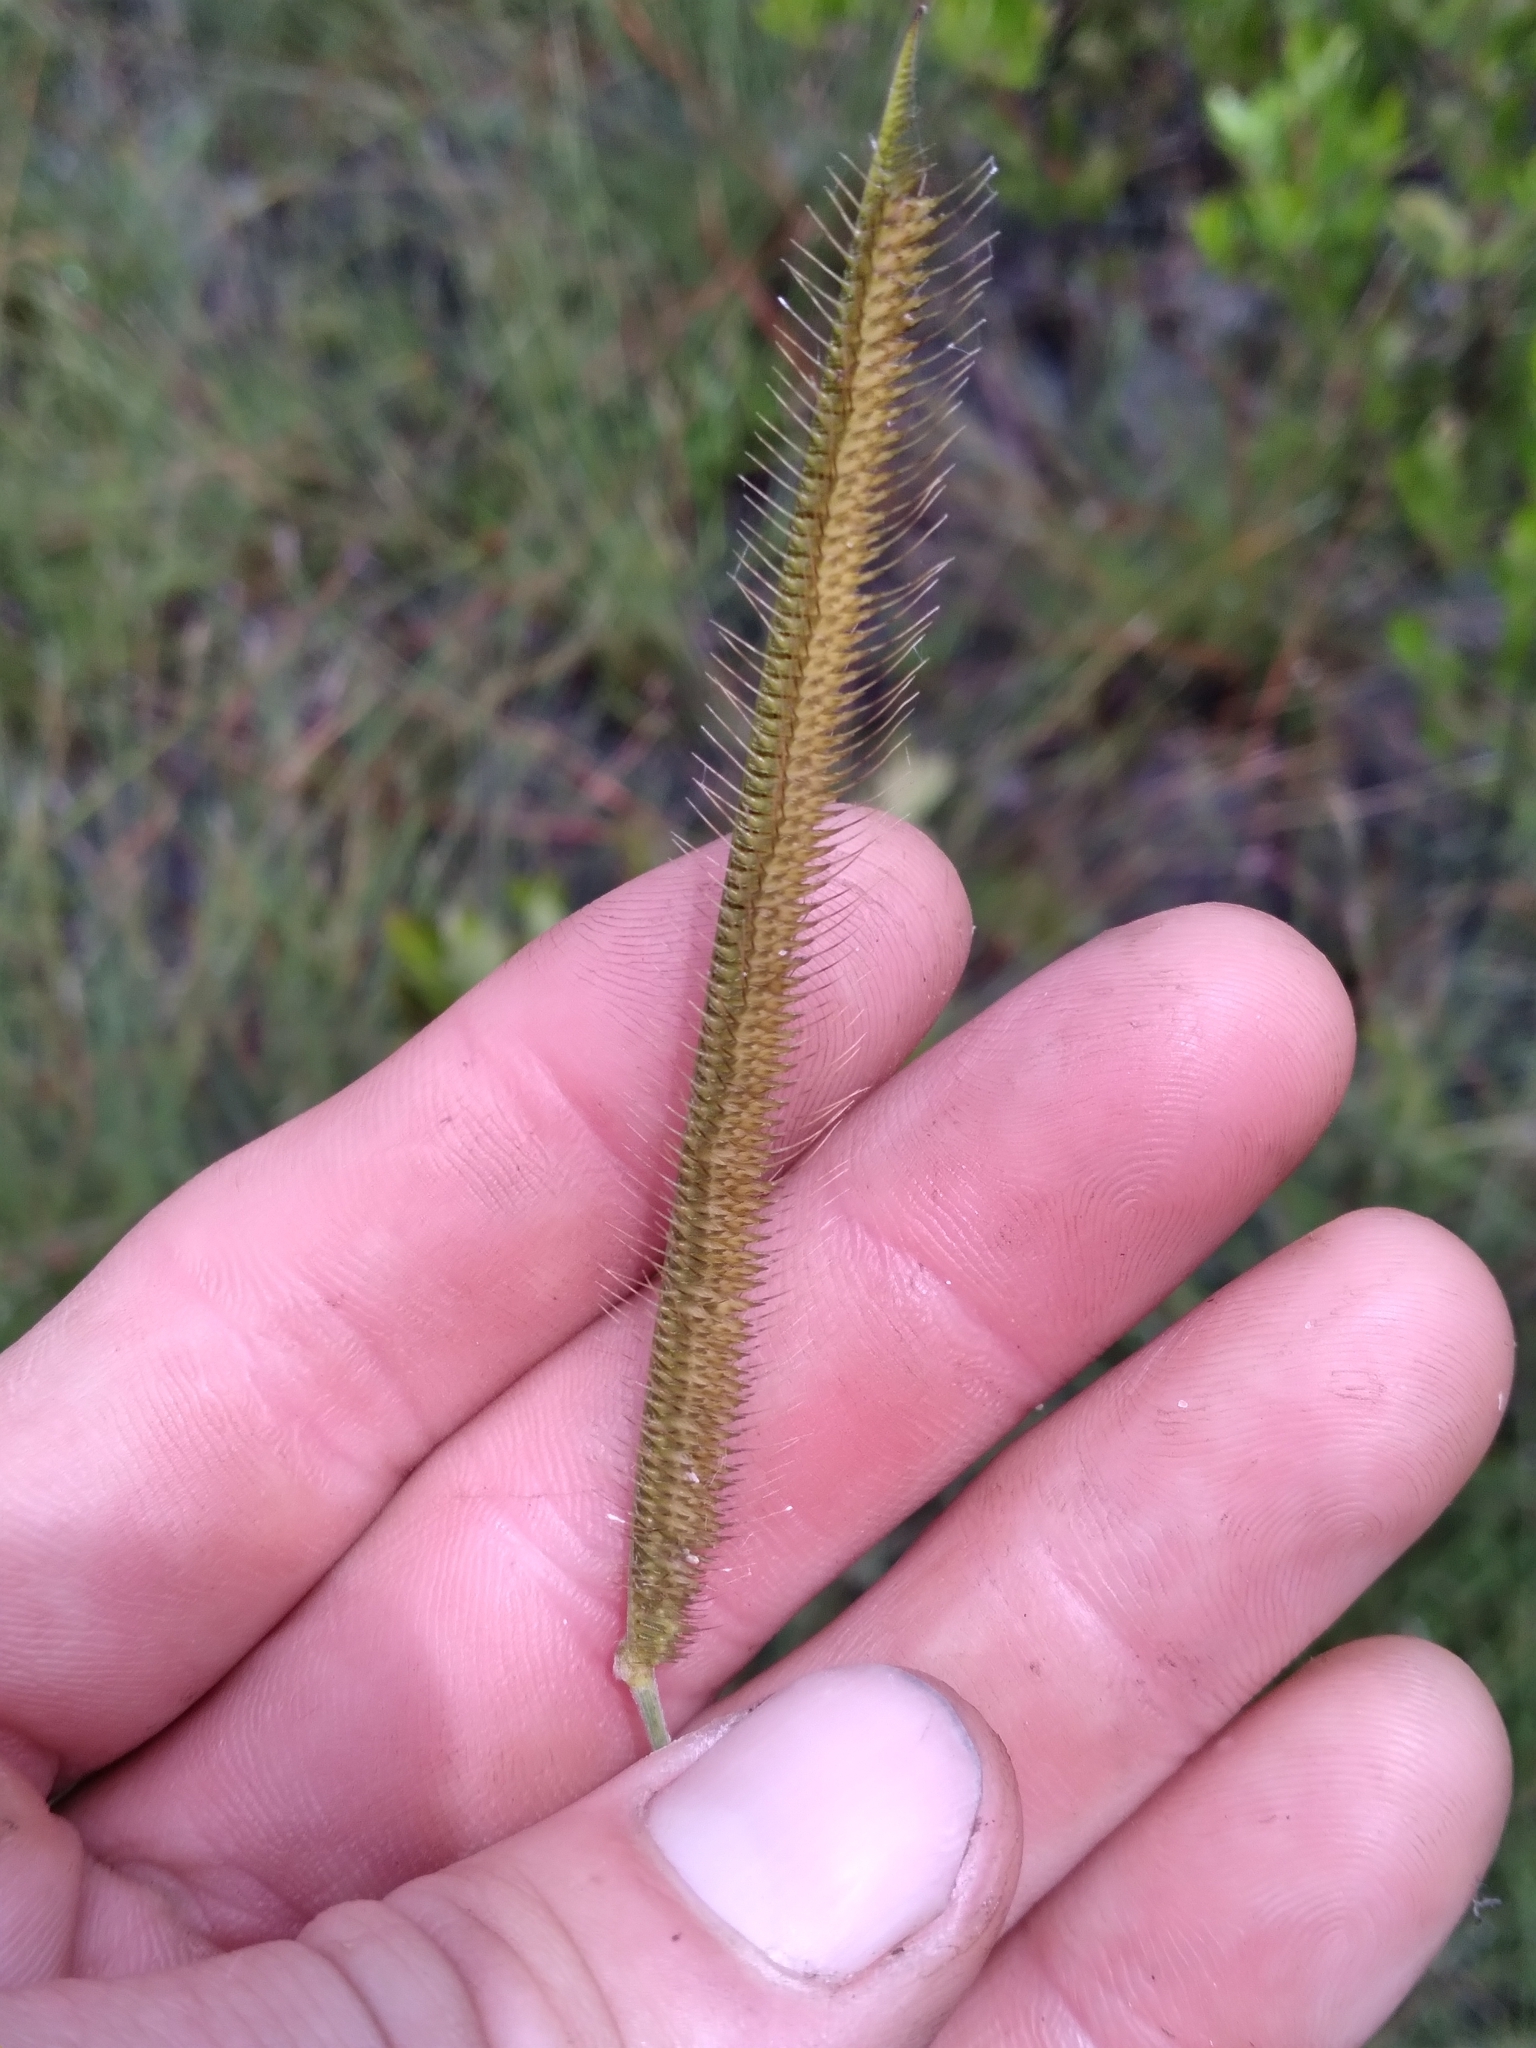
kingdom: Plantae
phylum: Tracheophyta
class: Liliopsida
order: Poales
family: Poaceae
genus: Ctenium
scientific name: Ctenium aromaticum
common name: Toothache grass
